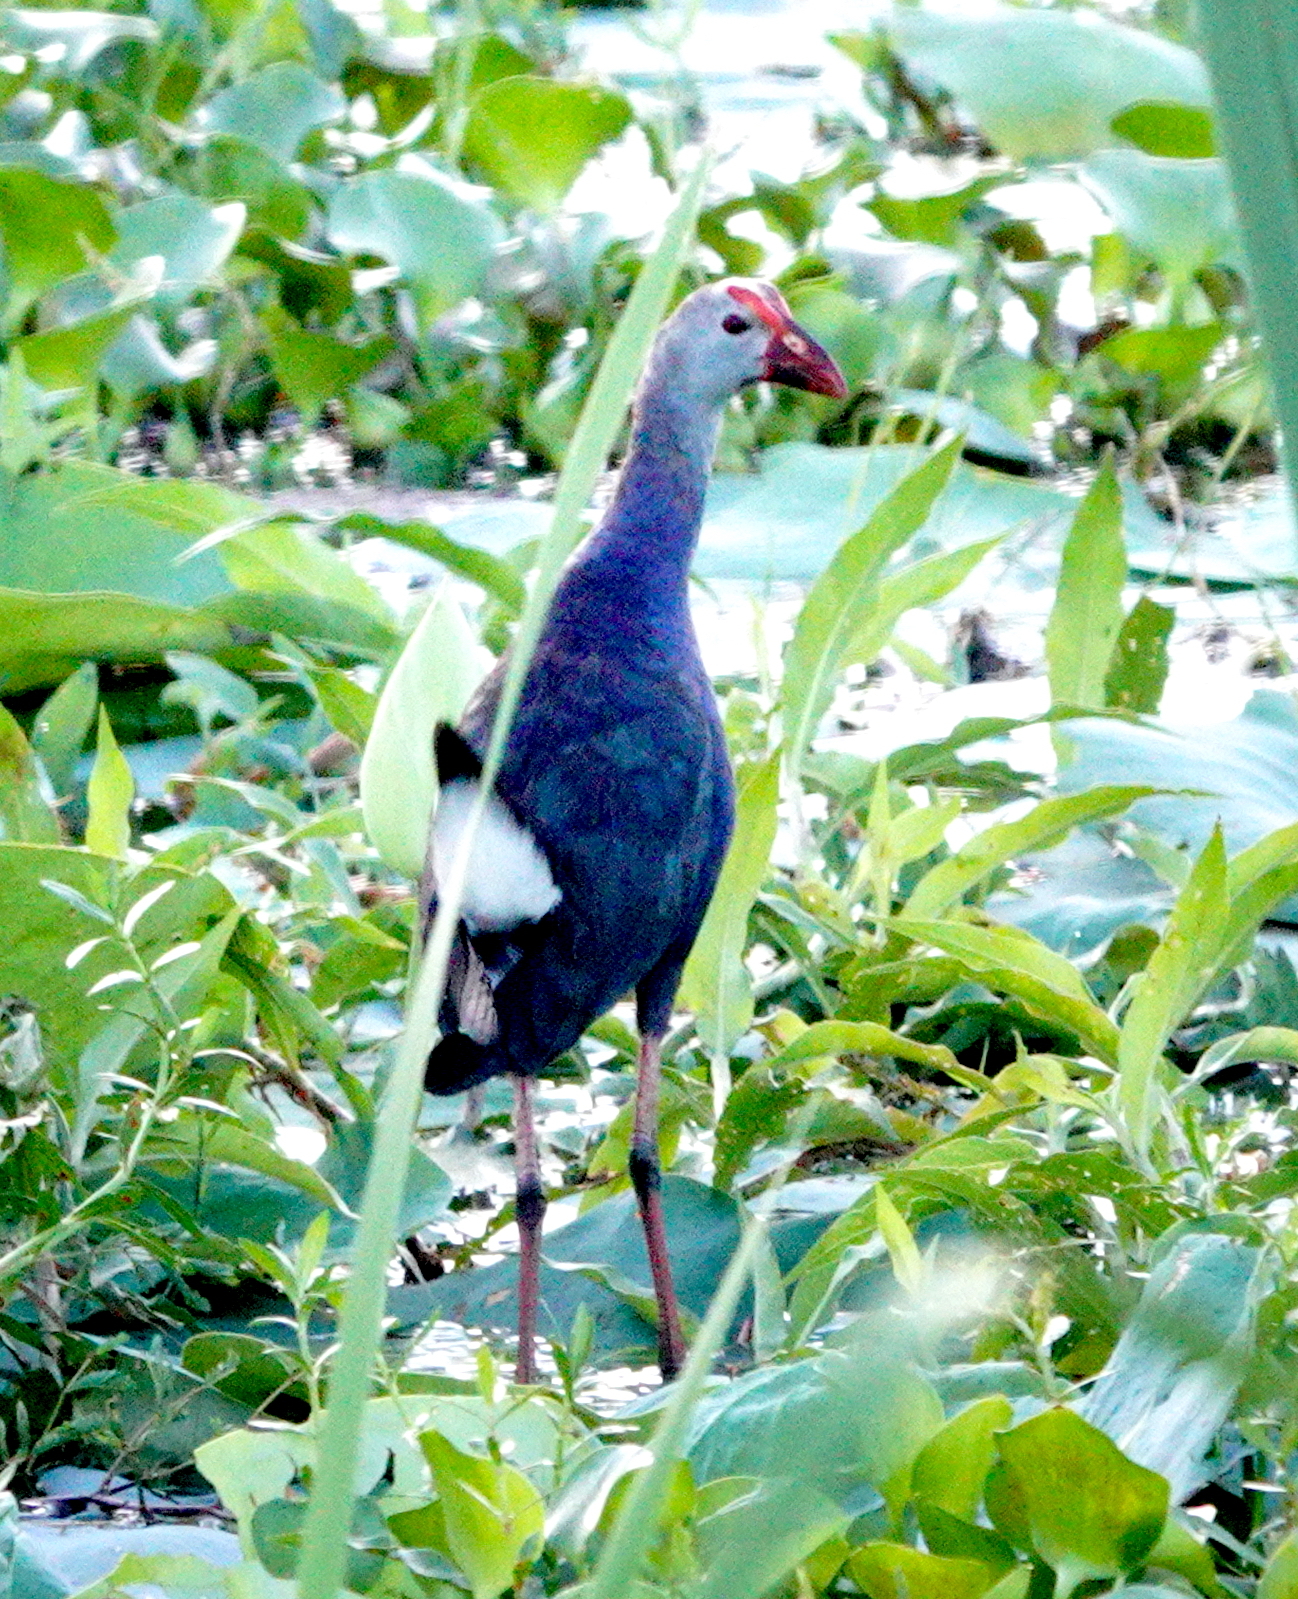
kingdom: Animalia
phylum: Chordata
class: Aves
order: Gruiformes
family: Rallidae
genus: Porphyrio
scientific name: Porphyrio porphyrio
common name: Purple swamphen
